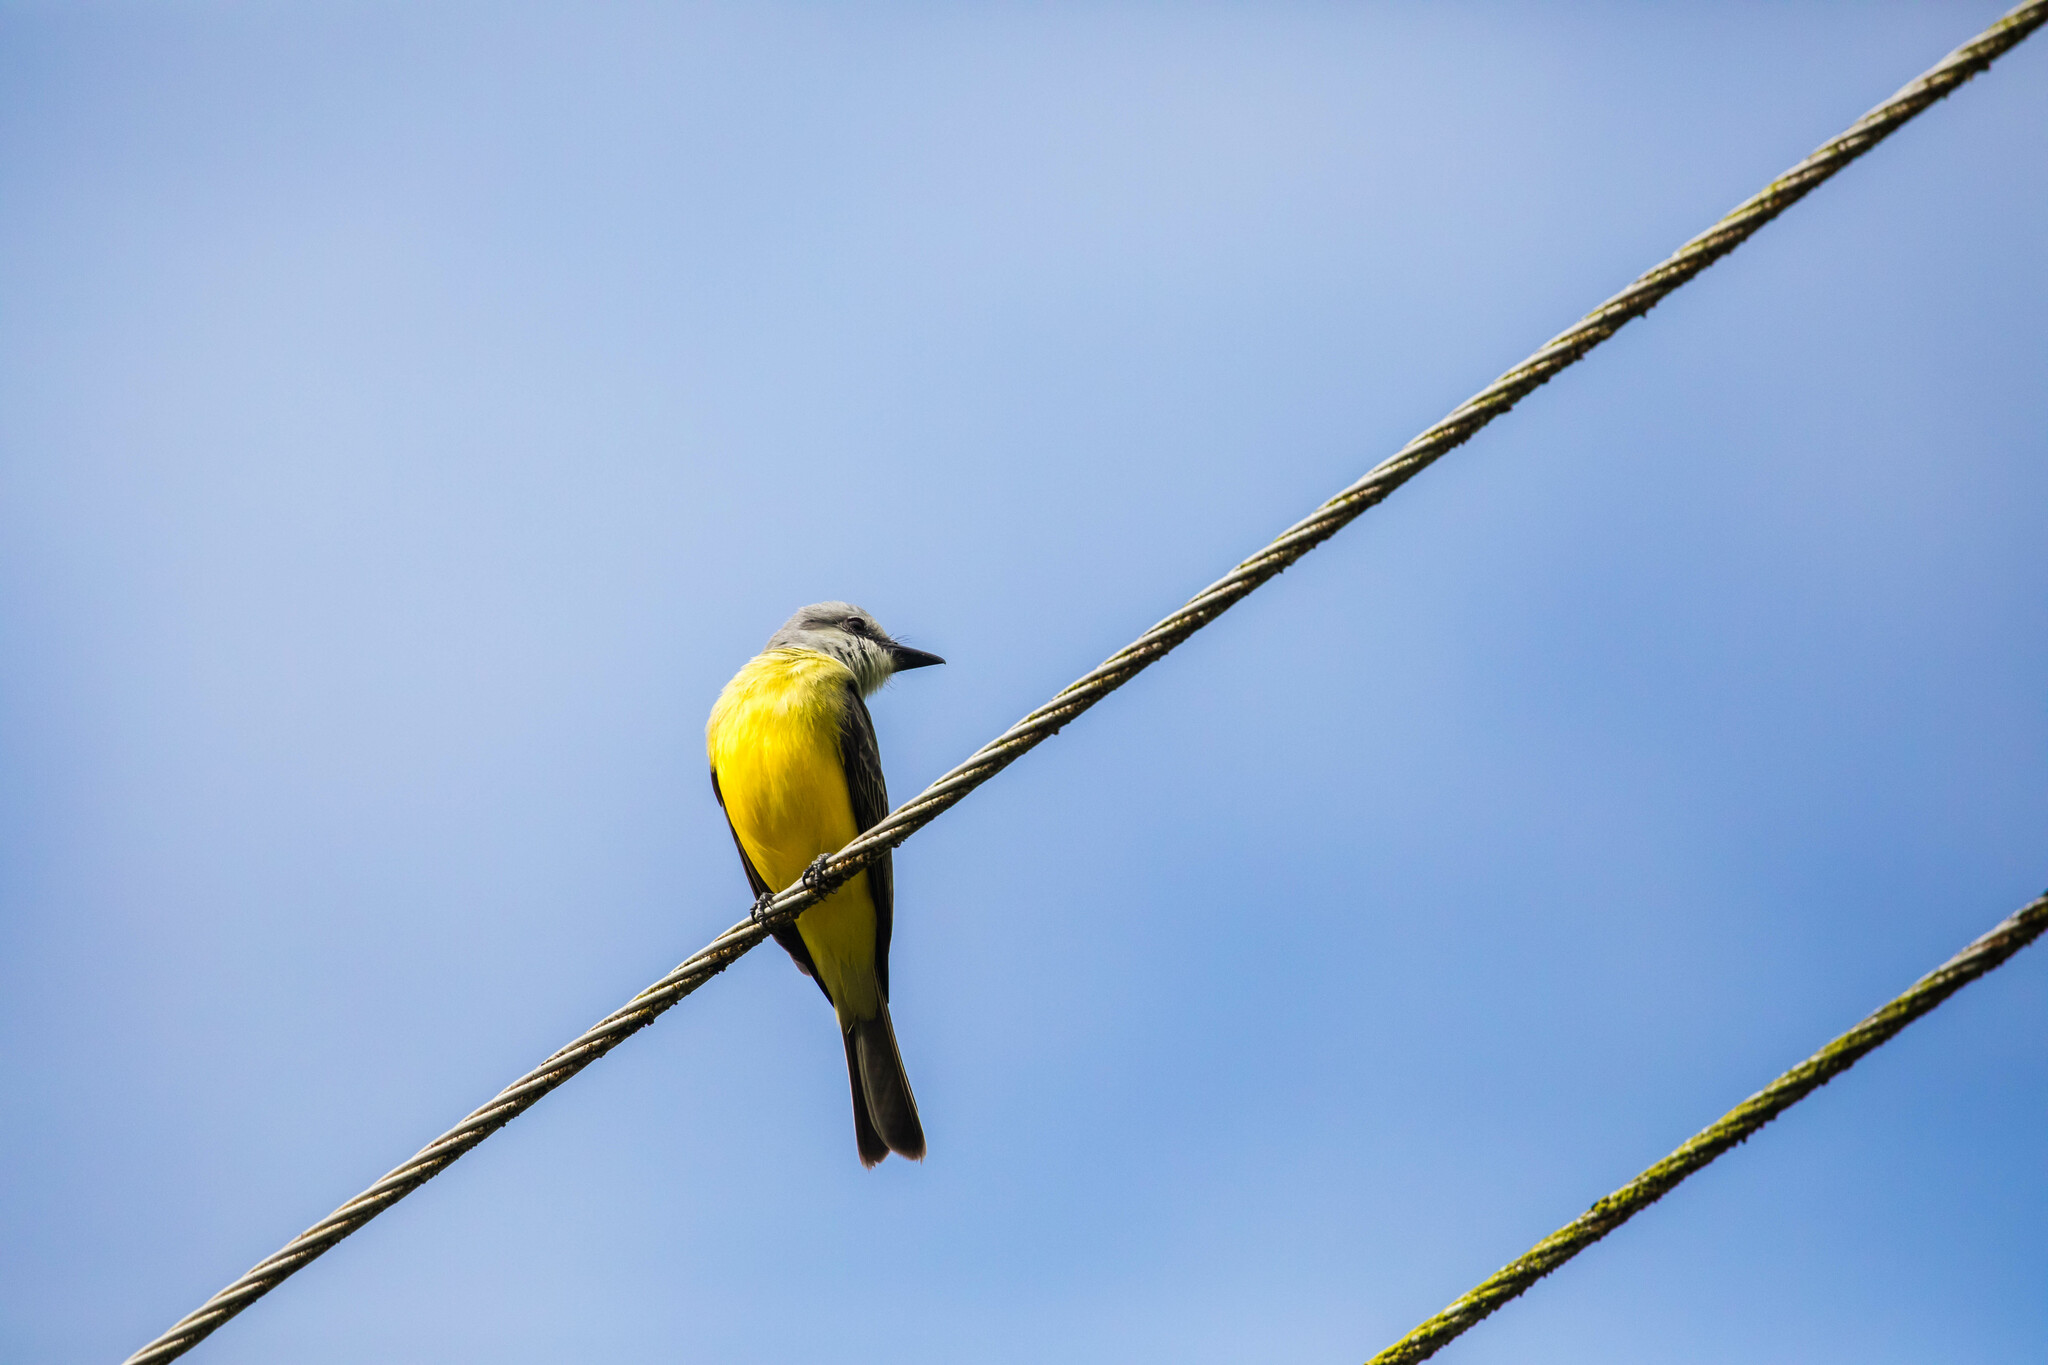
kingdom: Animalia
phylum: Chordata
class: Aves
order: Passeriformes
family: Tyrannidae
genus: Tyrannus
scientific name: Tyrannus melancholicus
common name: Tropical kingbird
